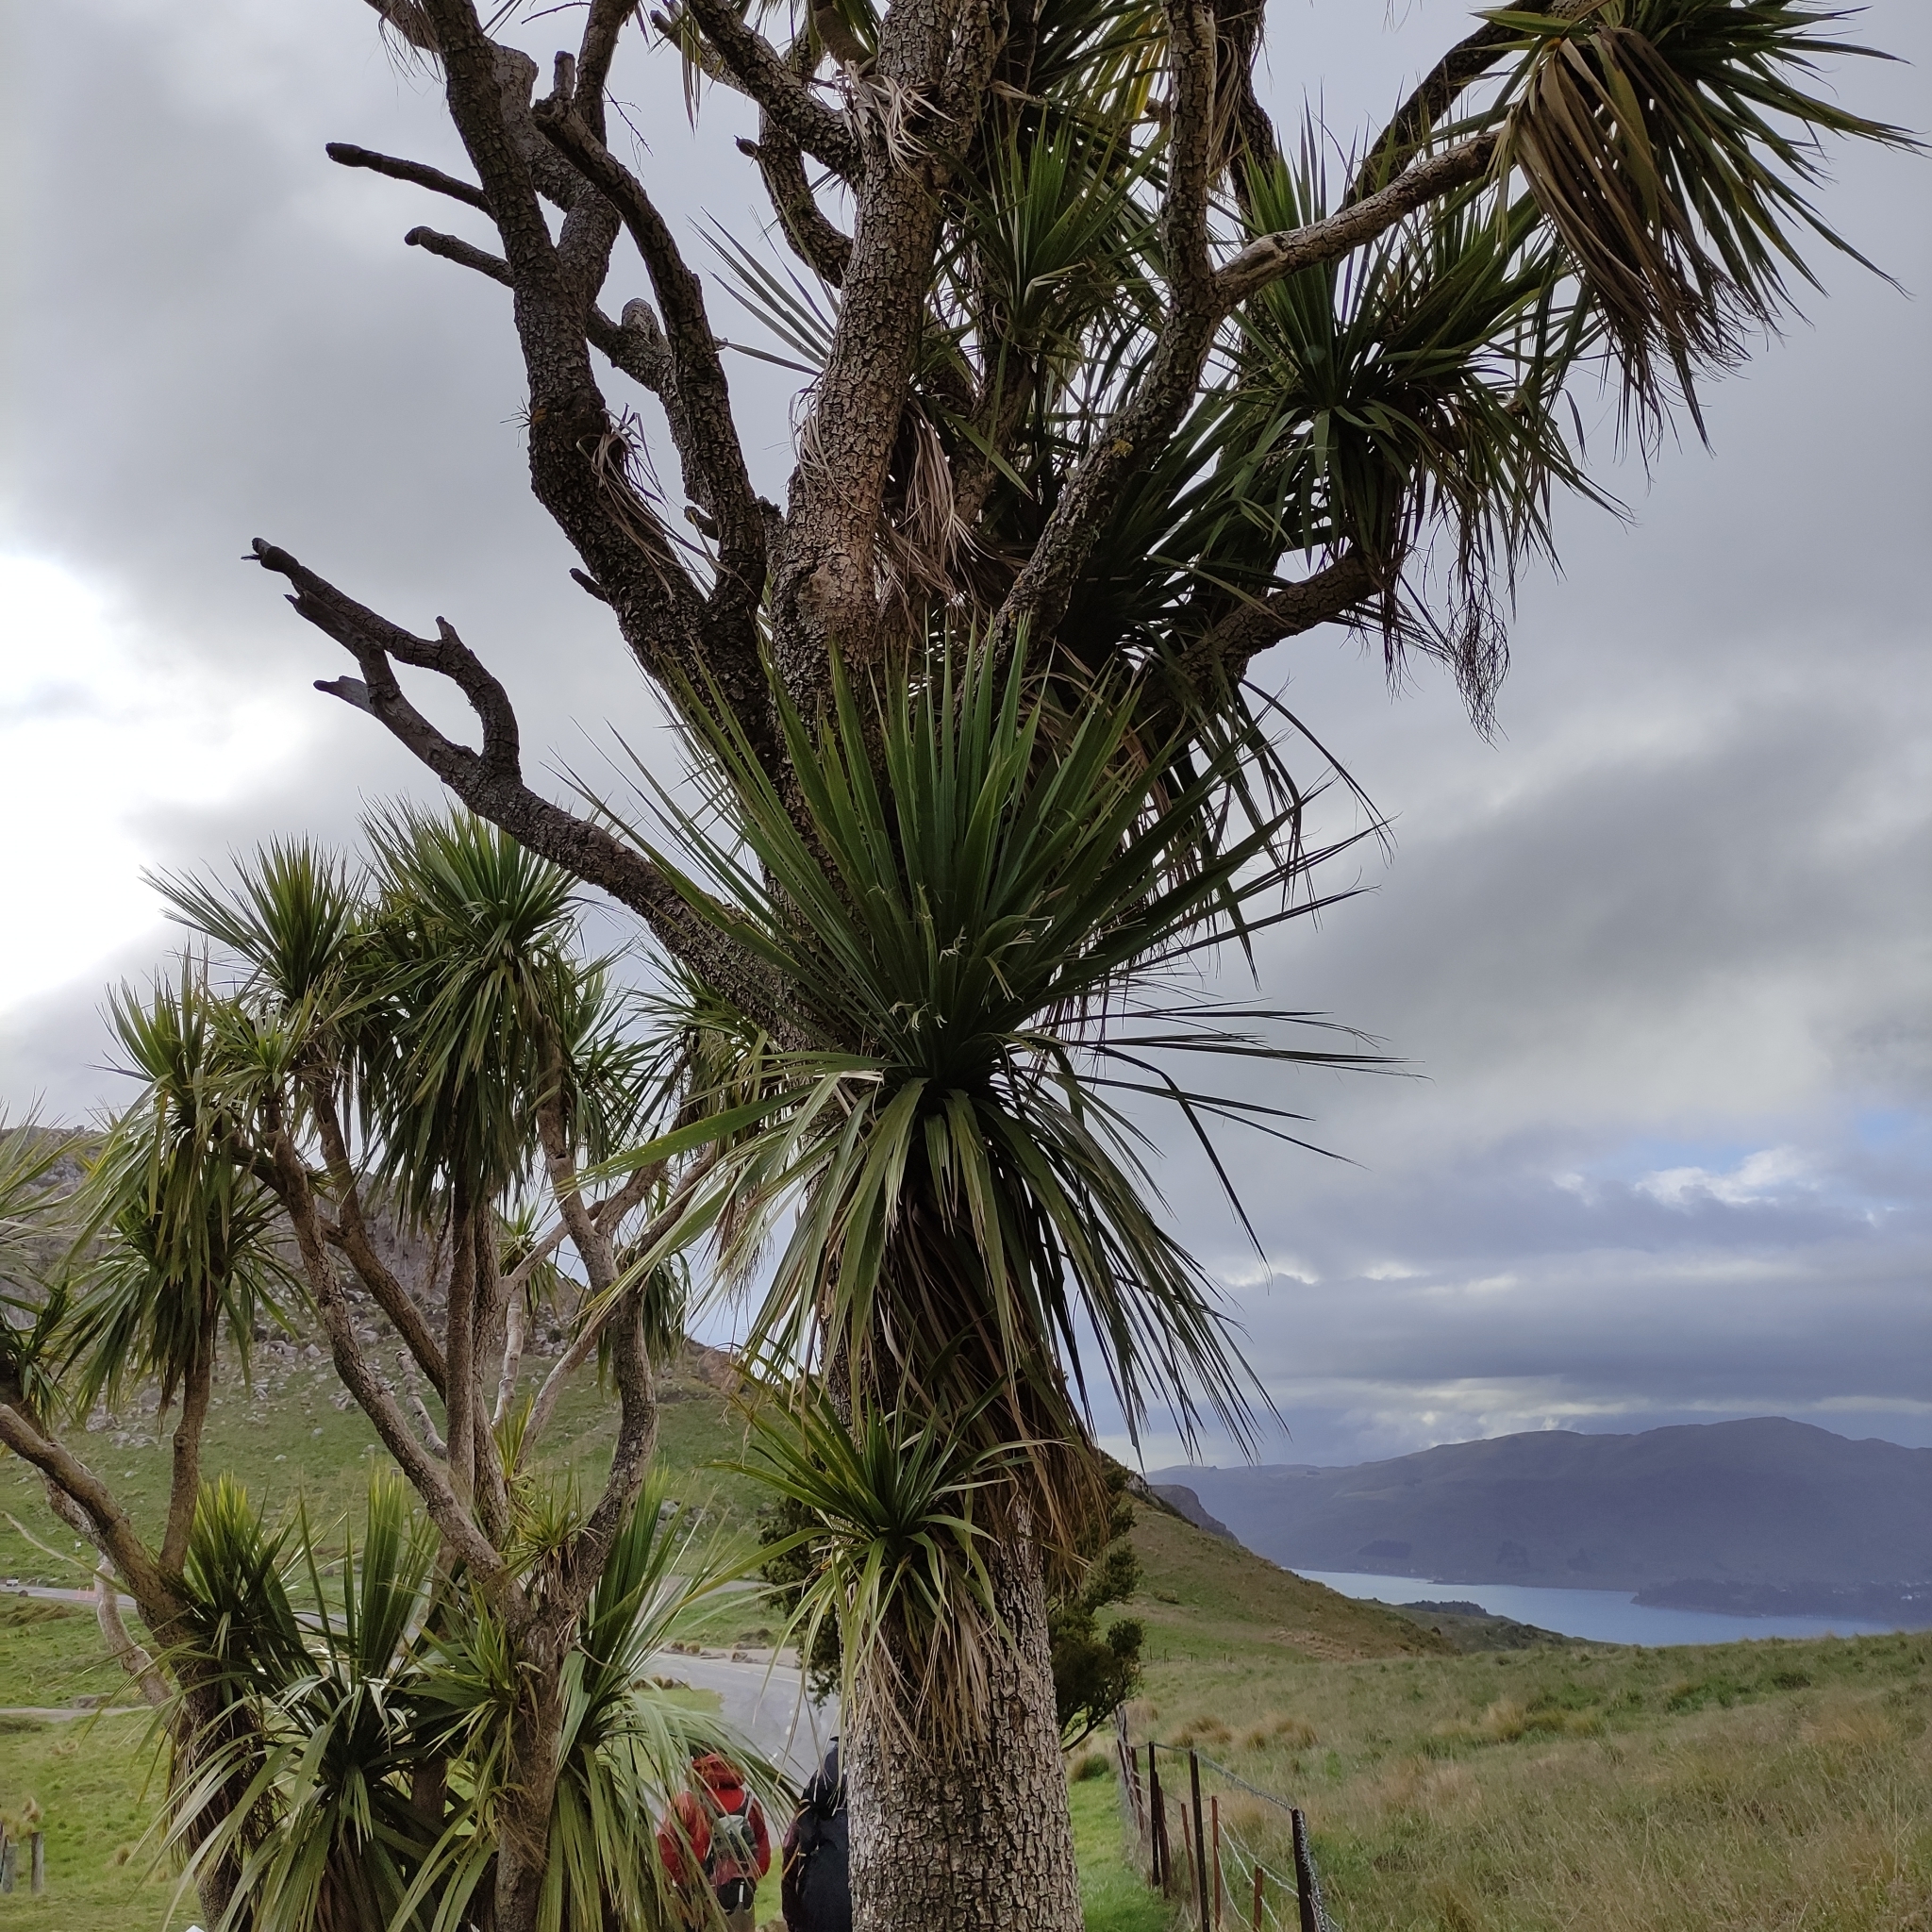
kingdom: Plantae
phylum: Tracheophyta
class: Liliopsida
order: Asparagales
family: Asparagaceae
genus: Cordyline
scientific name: Cordyline australis
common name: Cabbage-palm
